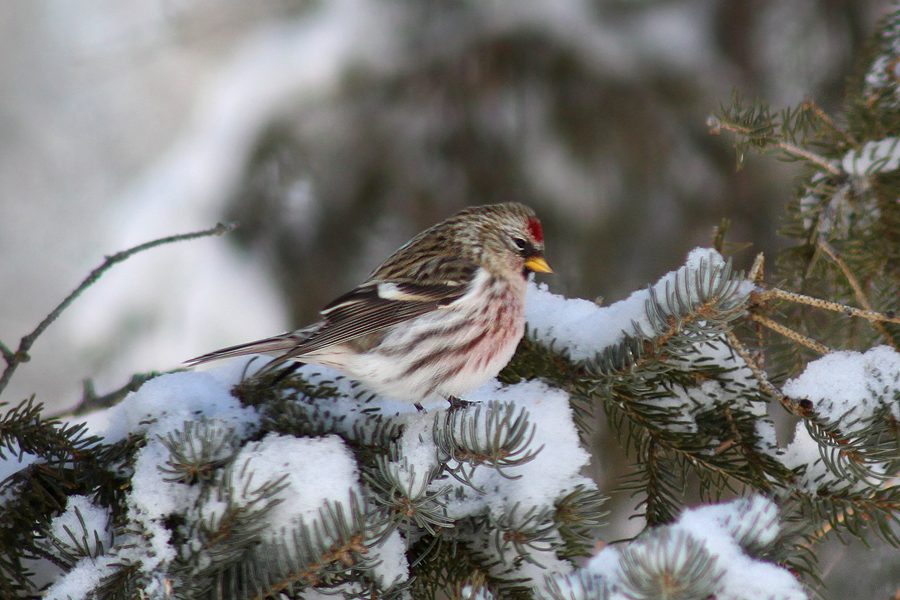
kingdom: Animalia
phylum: Chordata
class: Aves
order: Passeriformes
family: Fringillidae
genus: Acanthis
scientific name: Acanthis flammea
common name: Common redpoll
